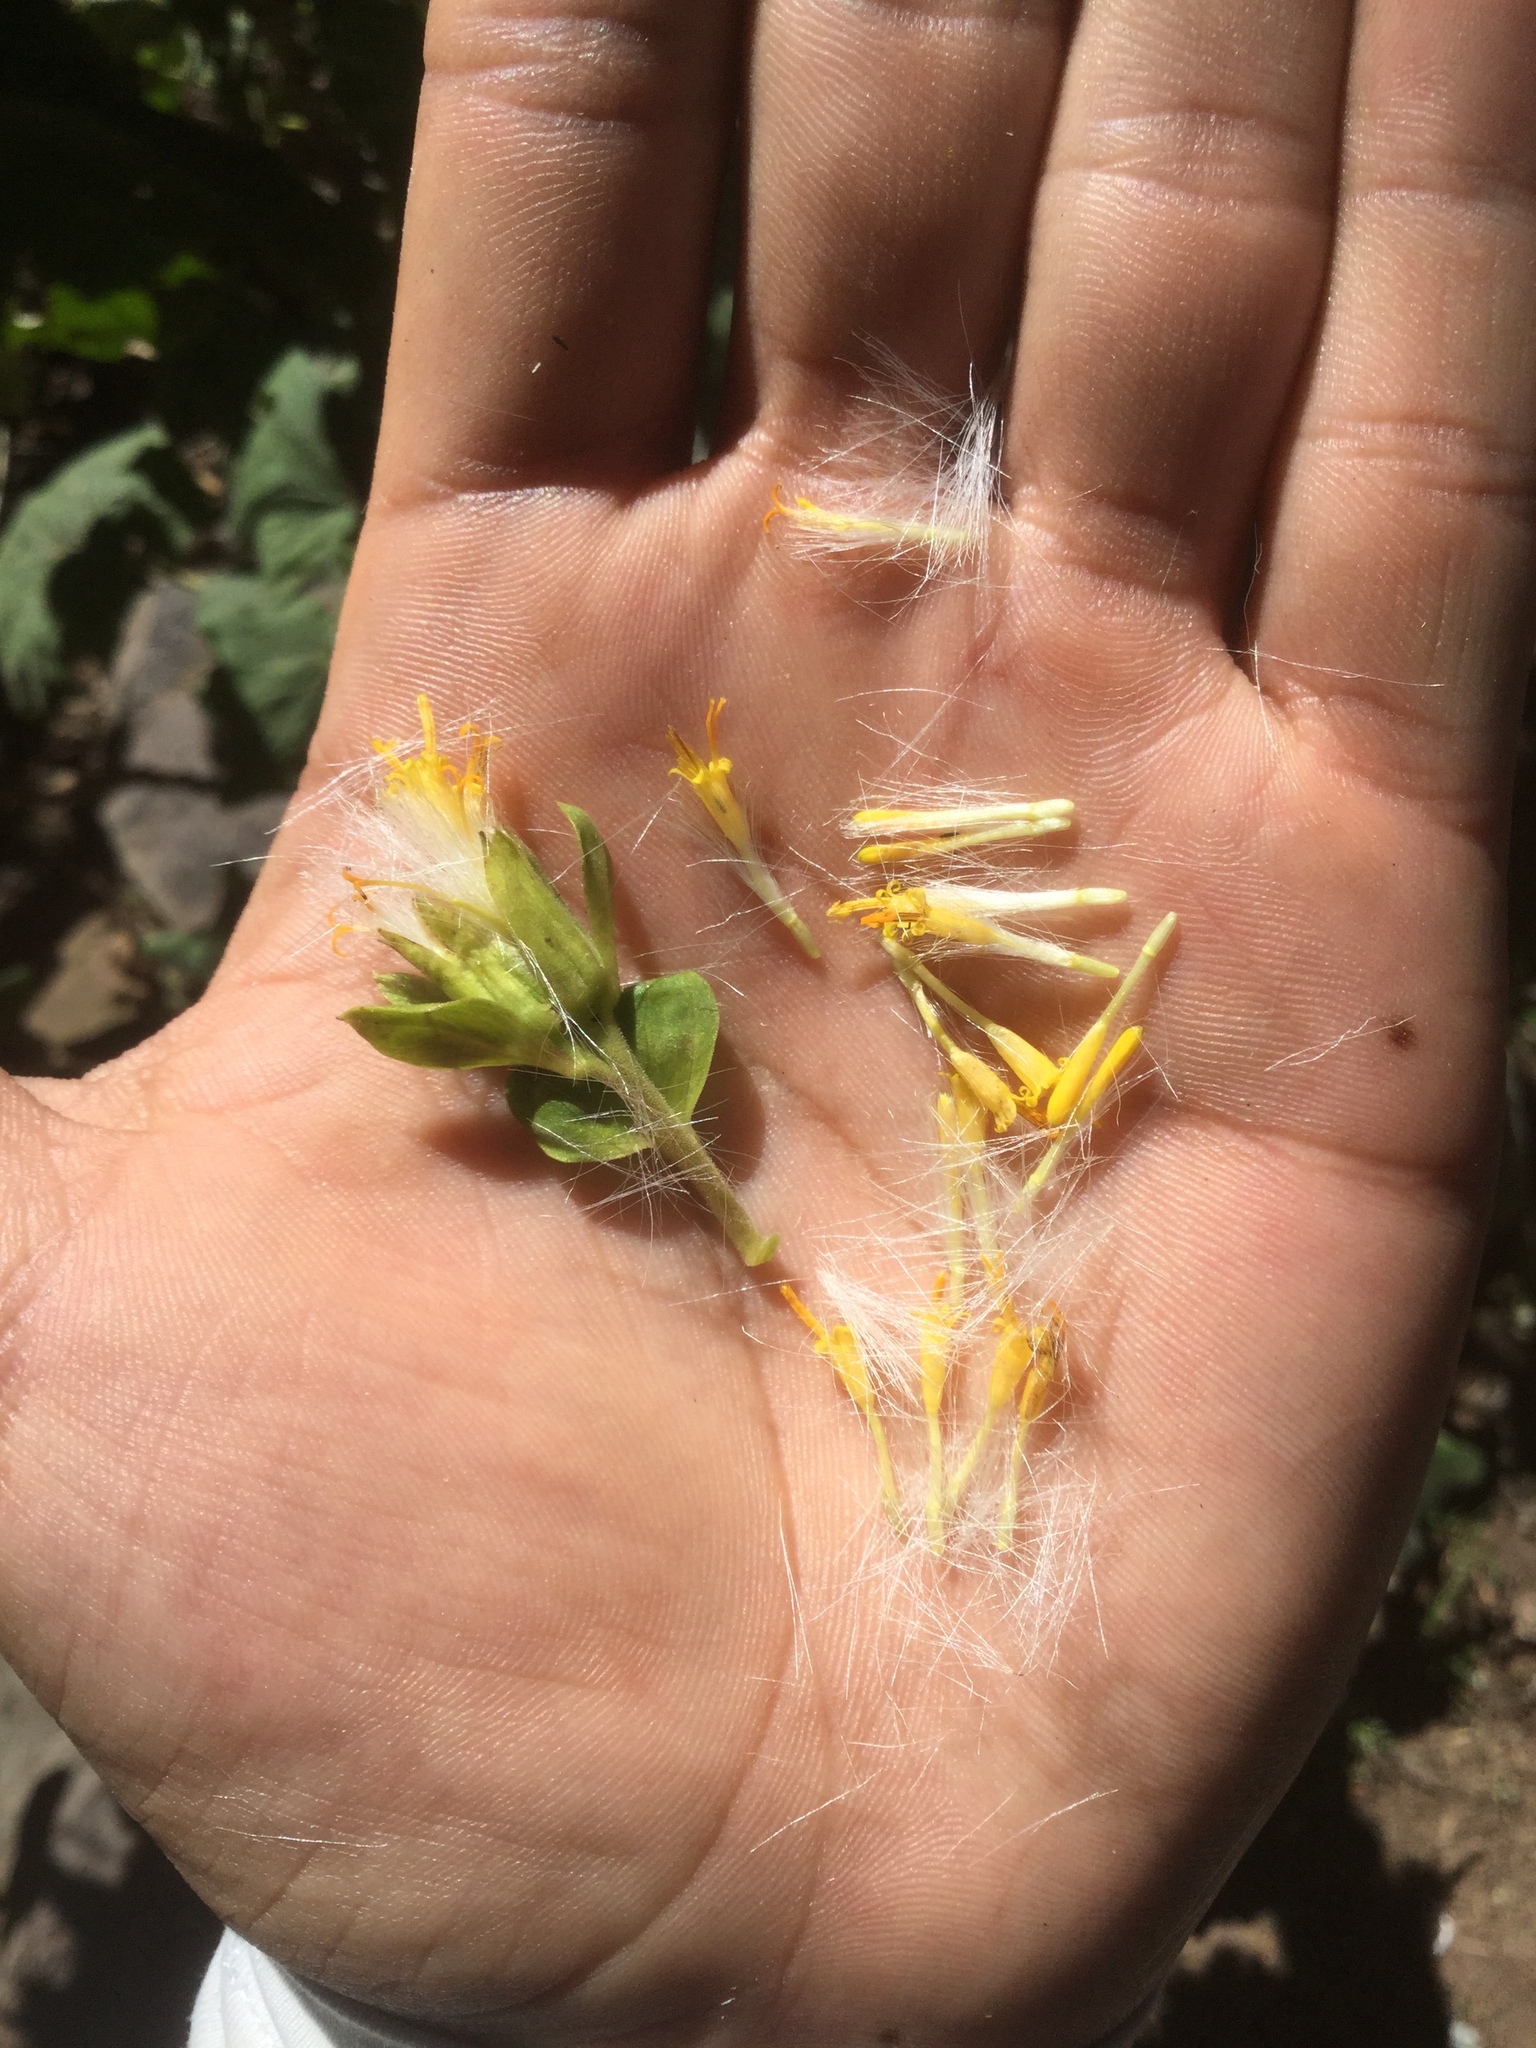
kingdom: Plantae
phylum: Tracheophyta
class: Magnoliopsida
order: Asterales
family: Asteraceae
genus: Roldana
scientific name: Roldana angulifolia
